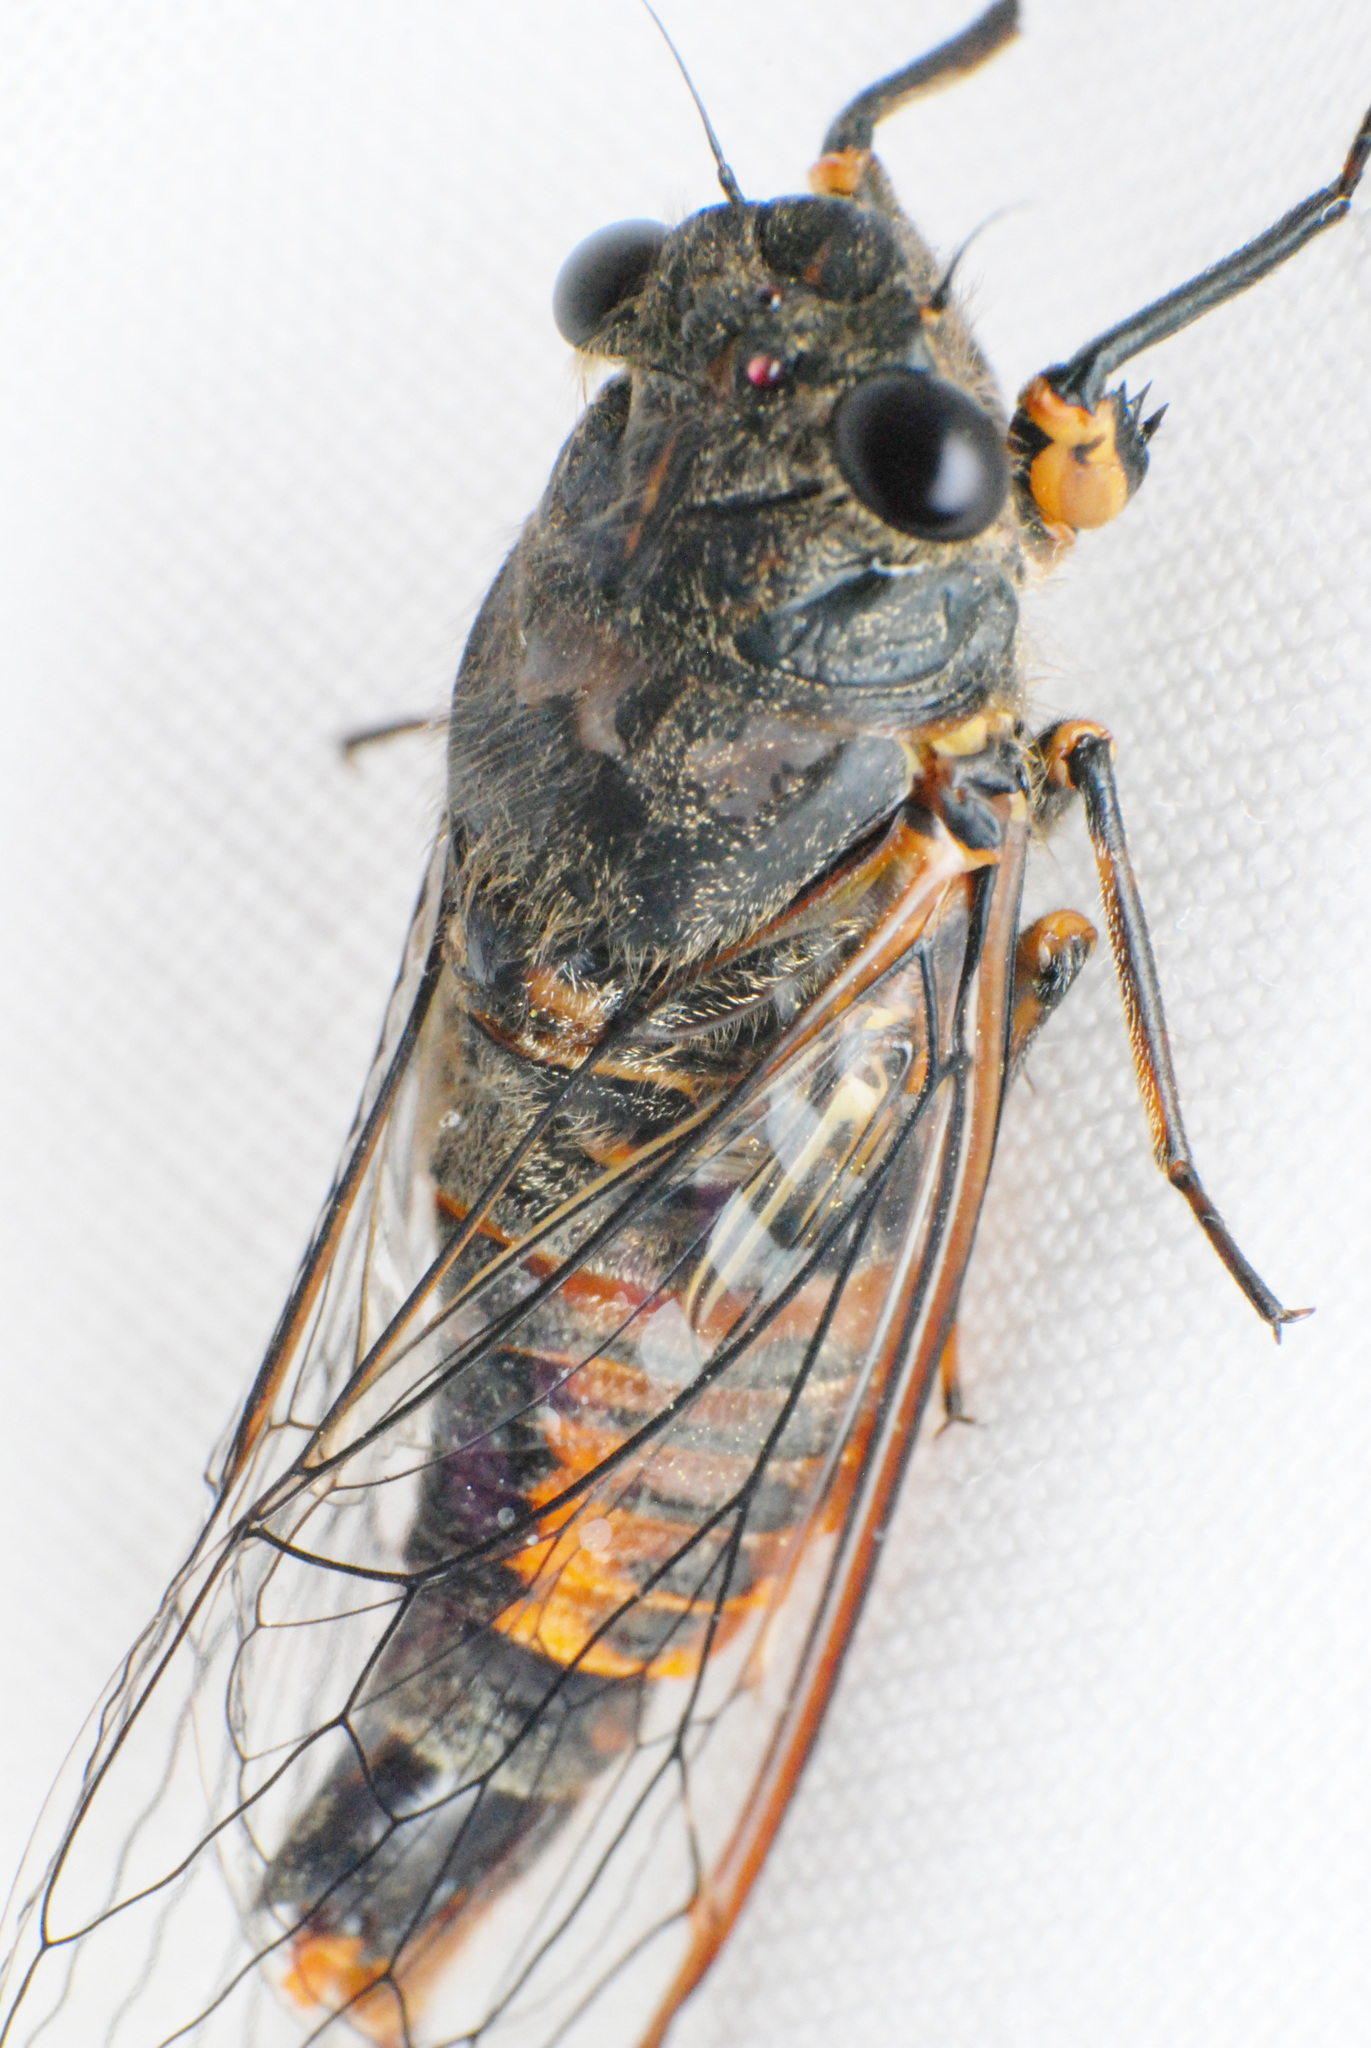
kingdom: Animalia
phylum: Arthropoda
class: Insecta
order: Hemiptera
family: Cicadidae
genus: Yoyetta
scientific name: Yoyetta abdominalis
